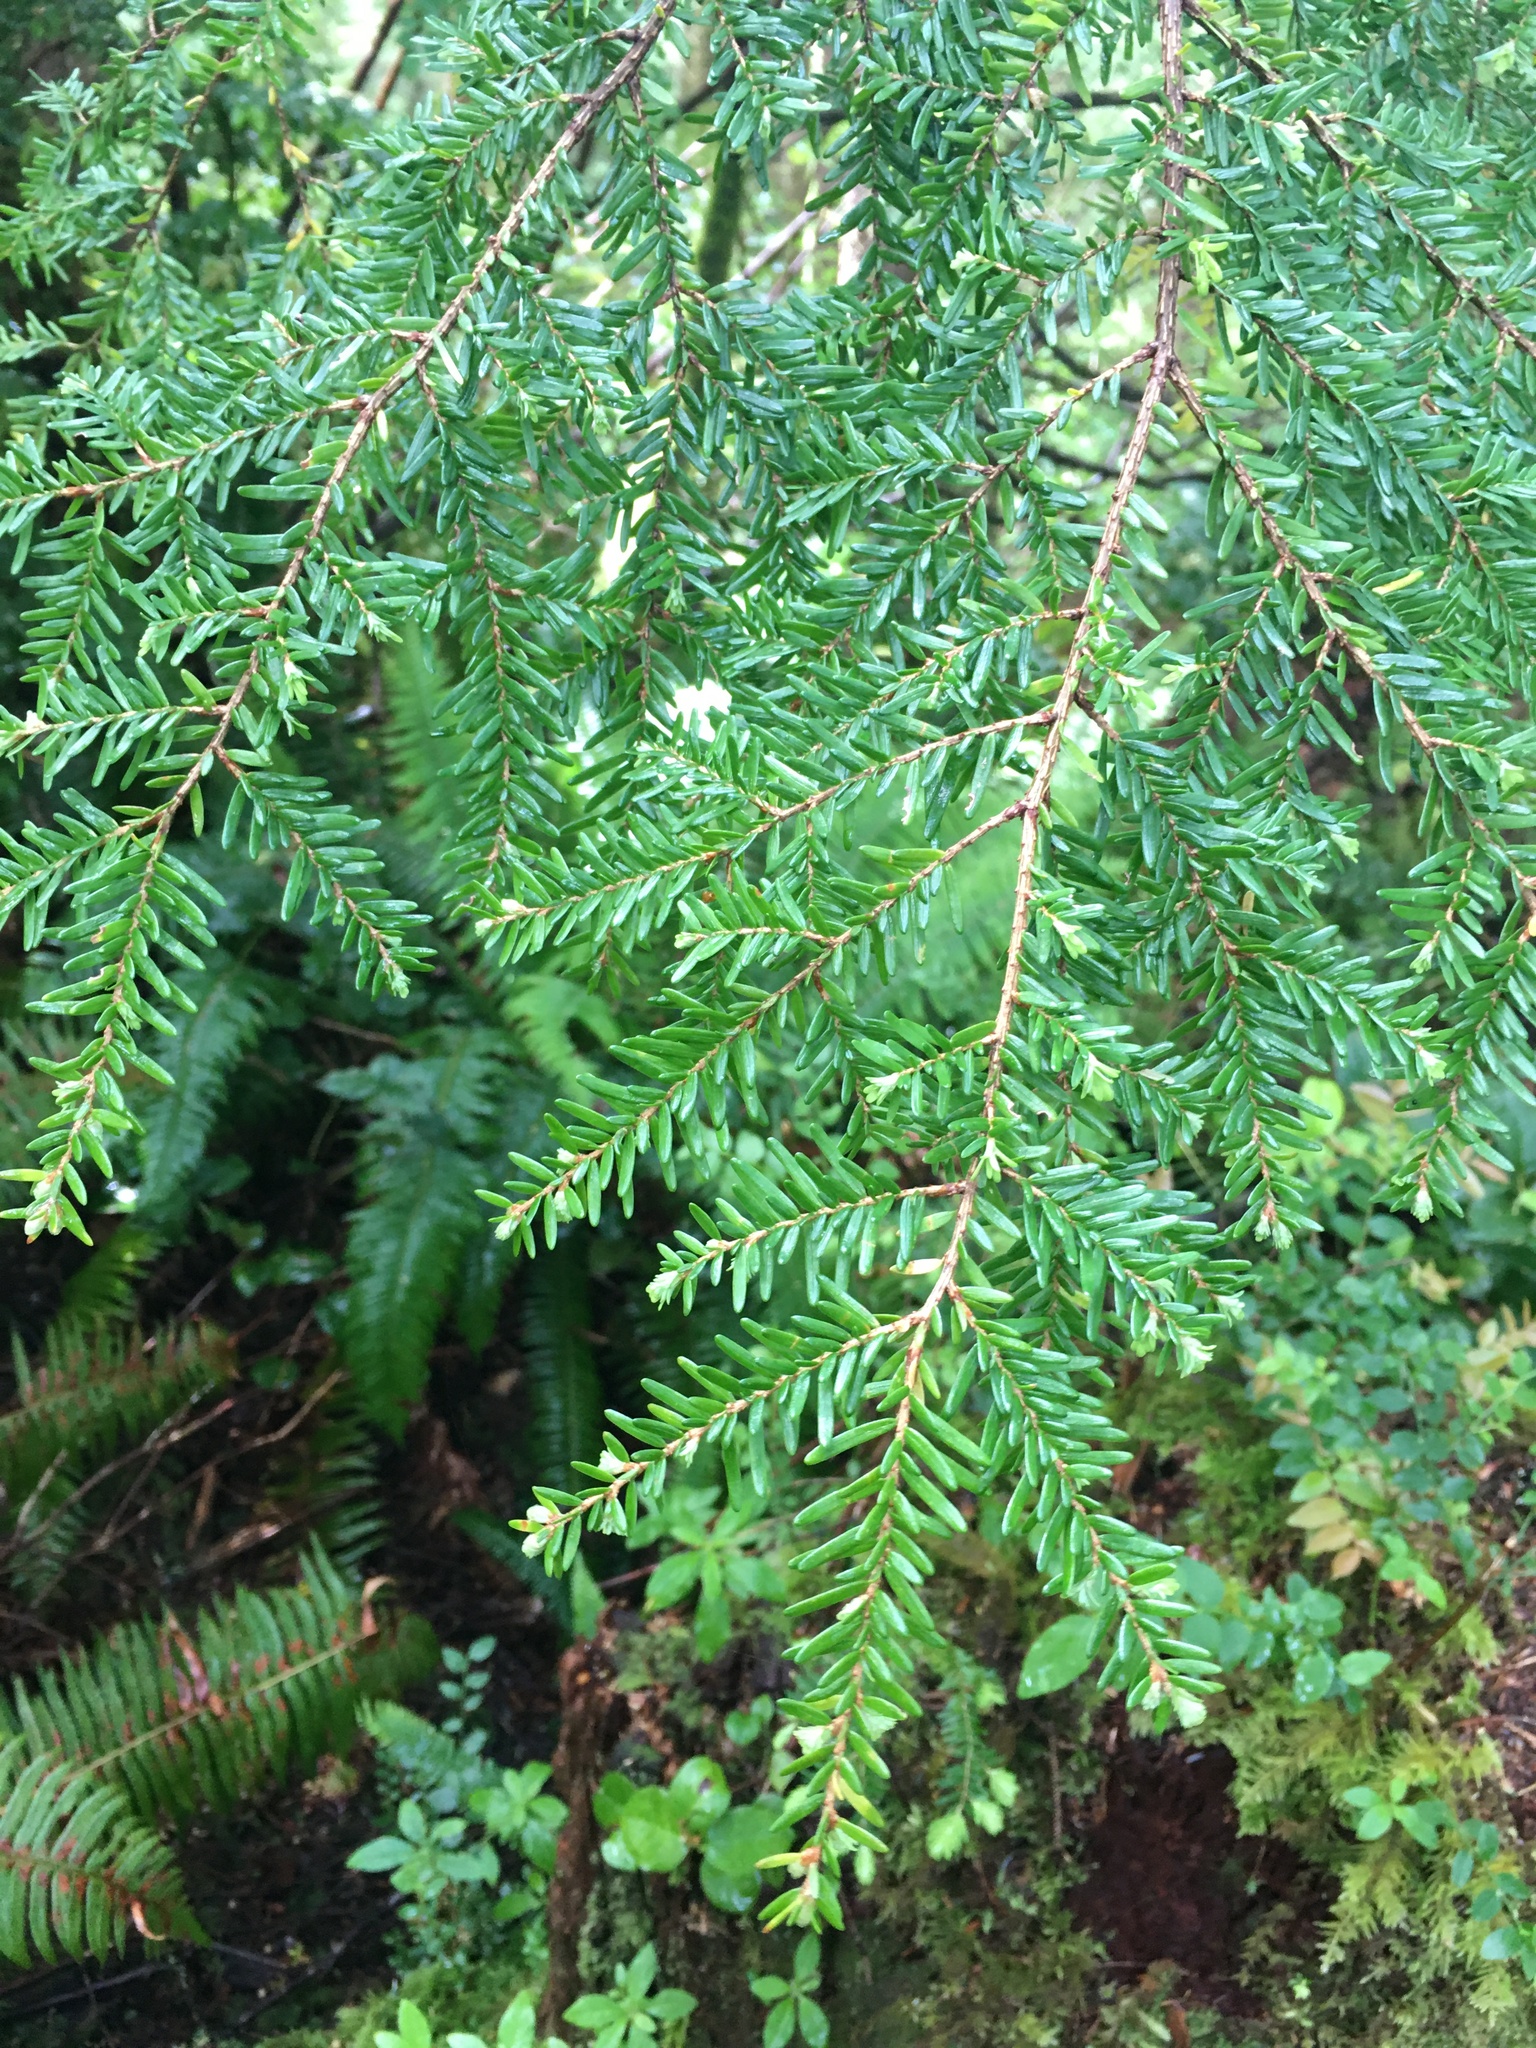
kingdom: Plantae
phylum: Tracheophyta
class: Pinopsida
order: Pinales
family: Pinaceae
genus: Tsuga
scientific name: Tsuga heterophylla
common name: Western hemlock
